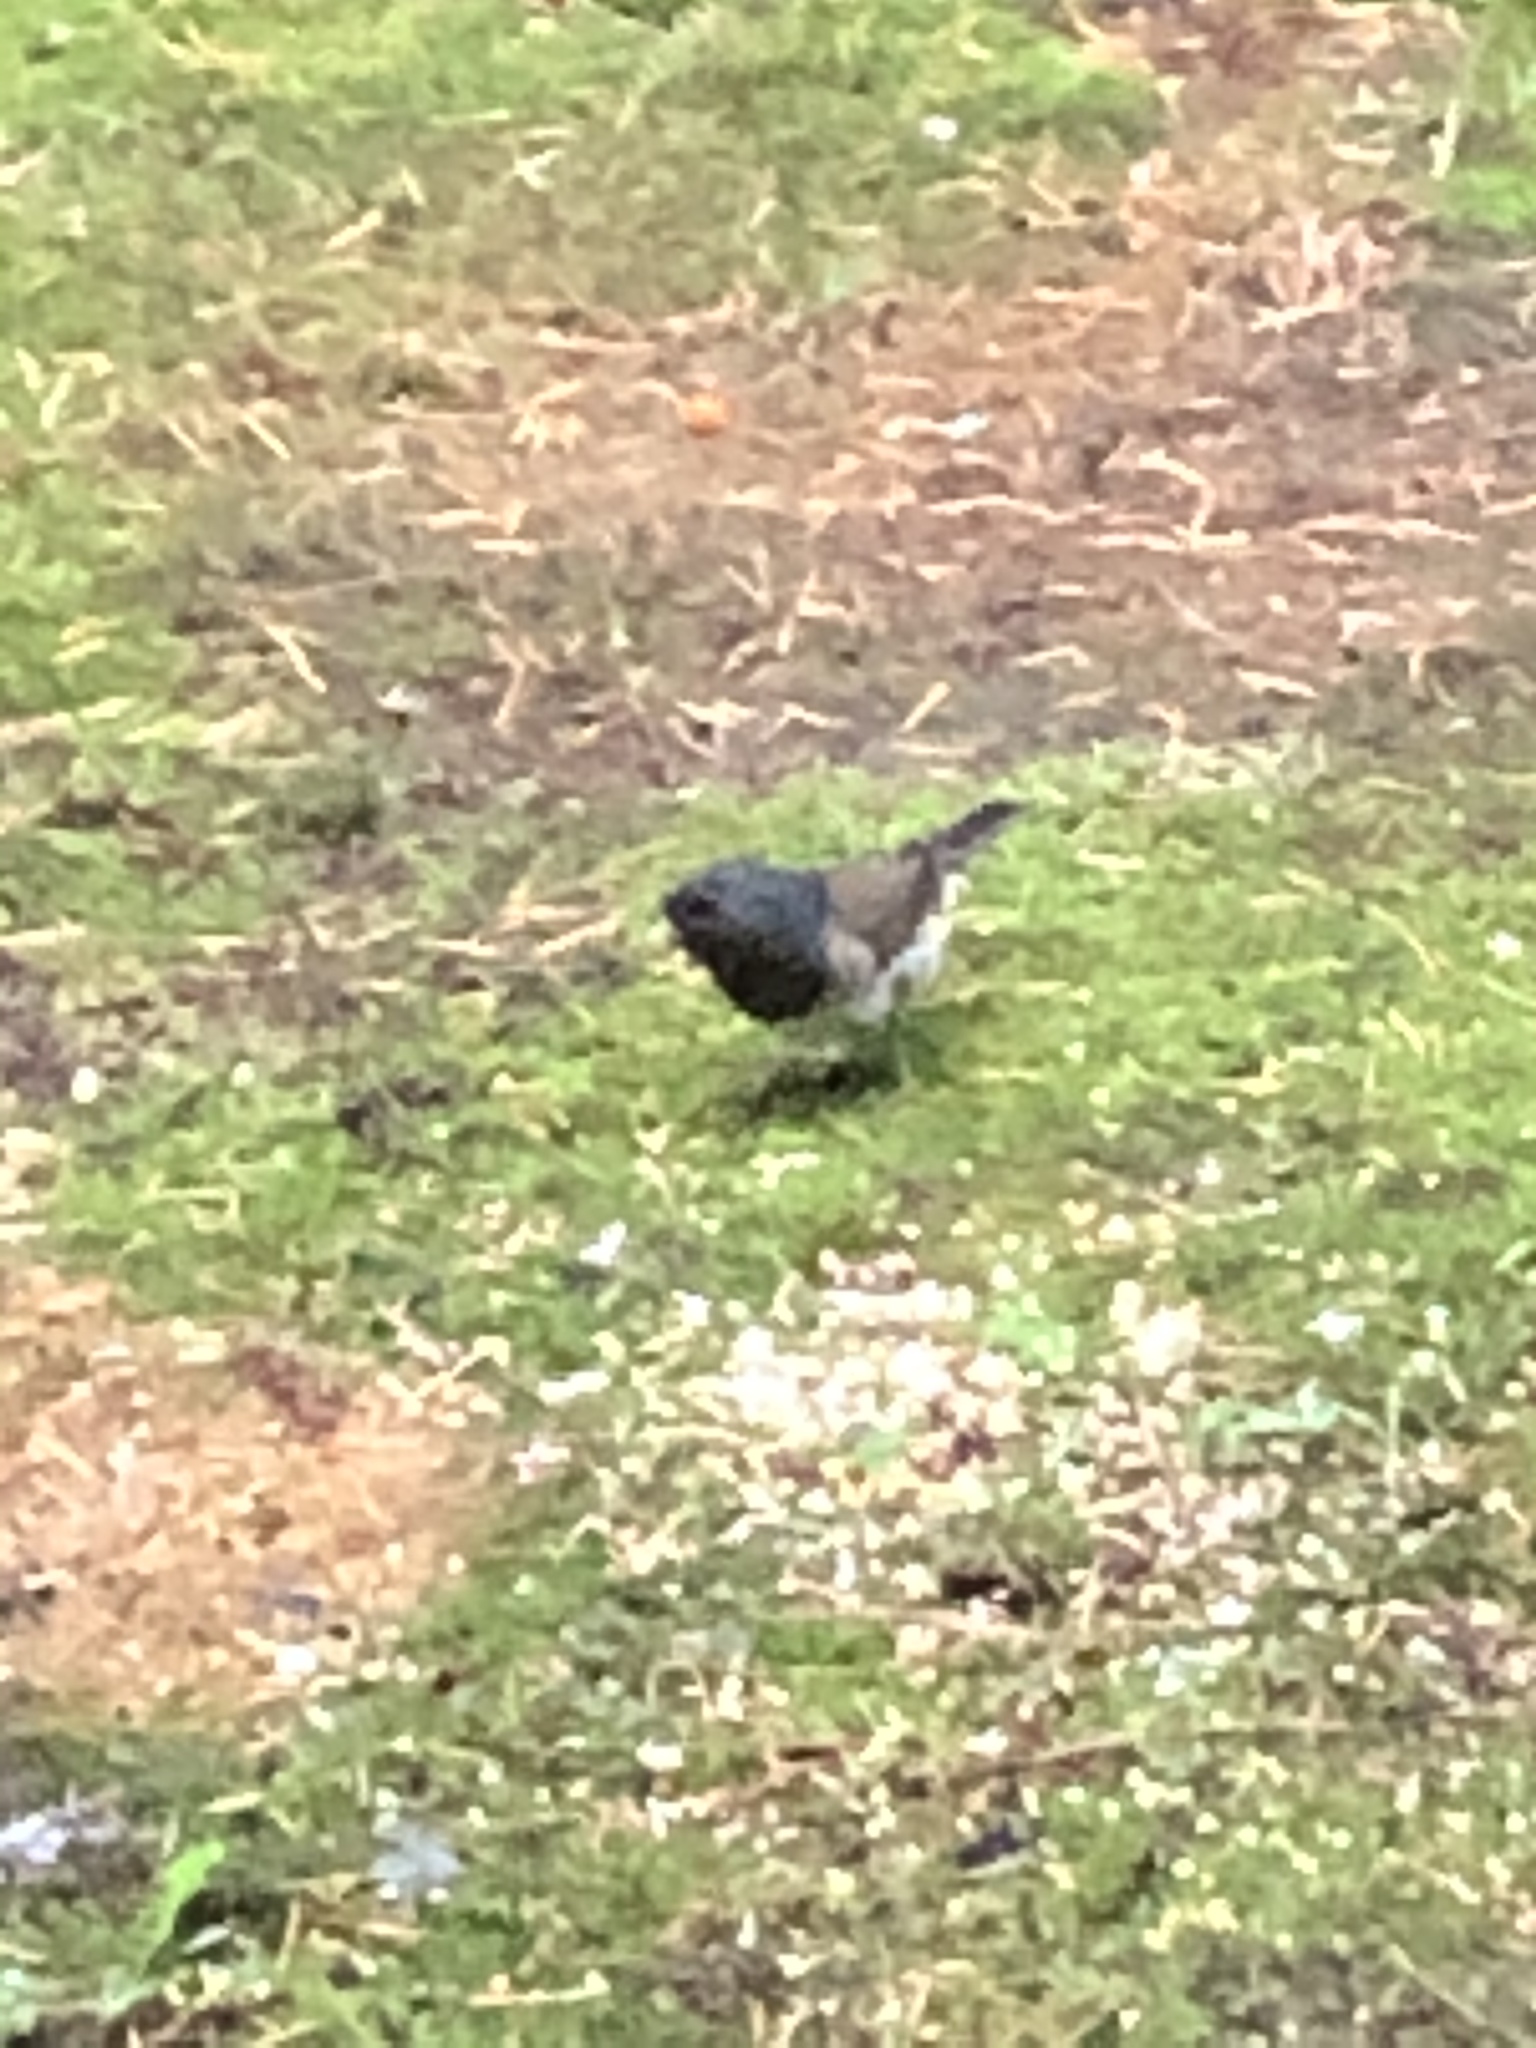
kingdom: Animalia
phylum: Chordata
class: Aves
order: Passeriformes
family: Passerellidae
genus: Junco
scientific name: Junco hyemalis
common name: Dark-eyed junco
